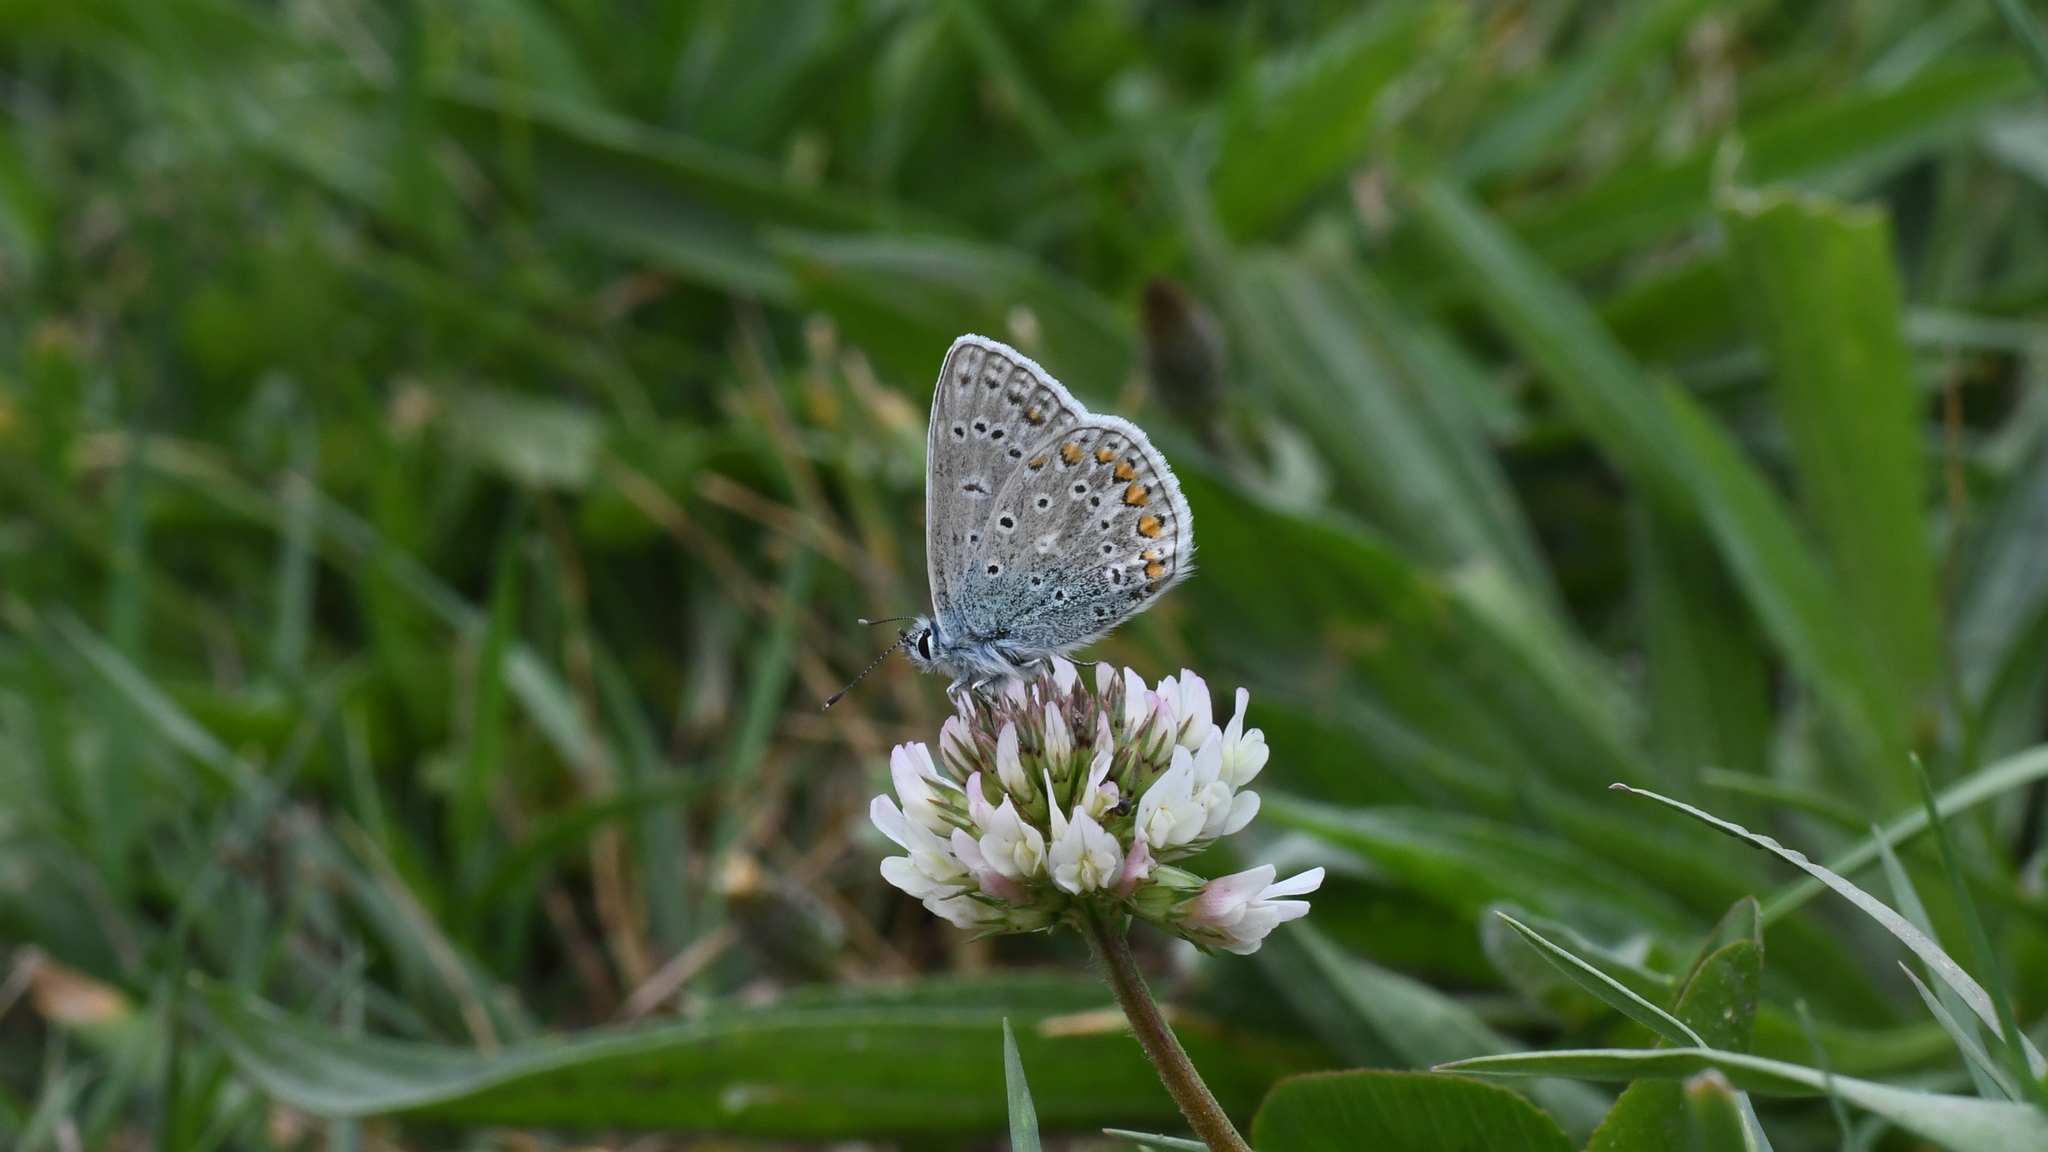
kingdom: Animalia
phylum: Arthropoda
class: Insecta
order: Lepidoptera
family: Lycaenidae
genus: Polyommatus
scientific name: Polyommatus icarus
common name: Common blue
